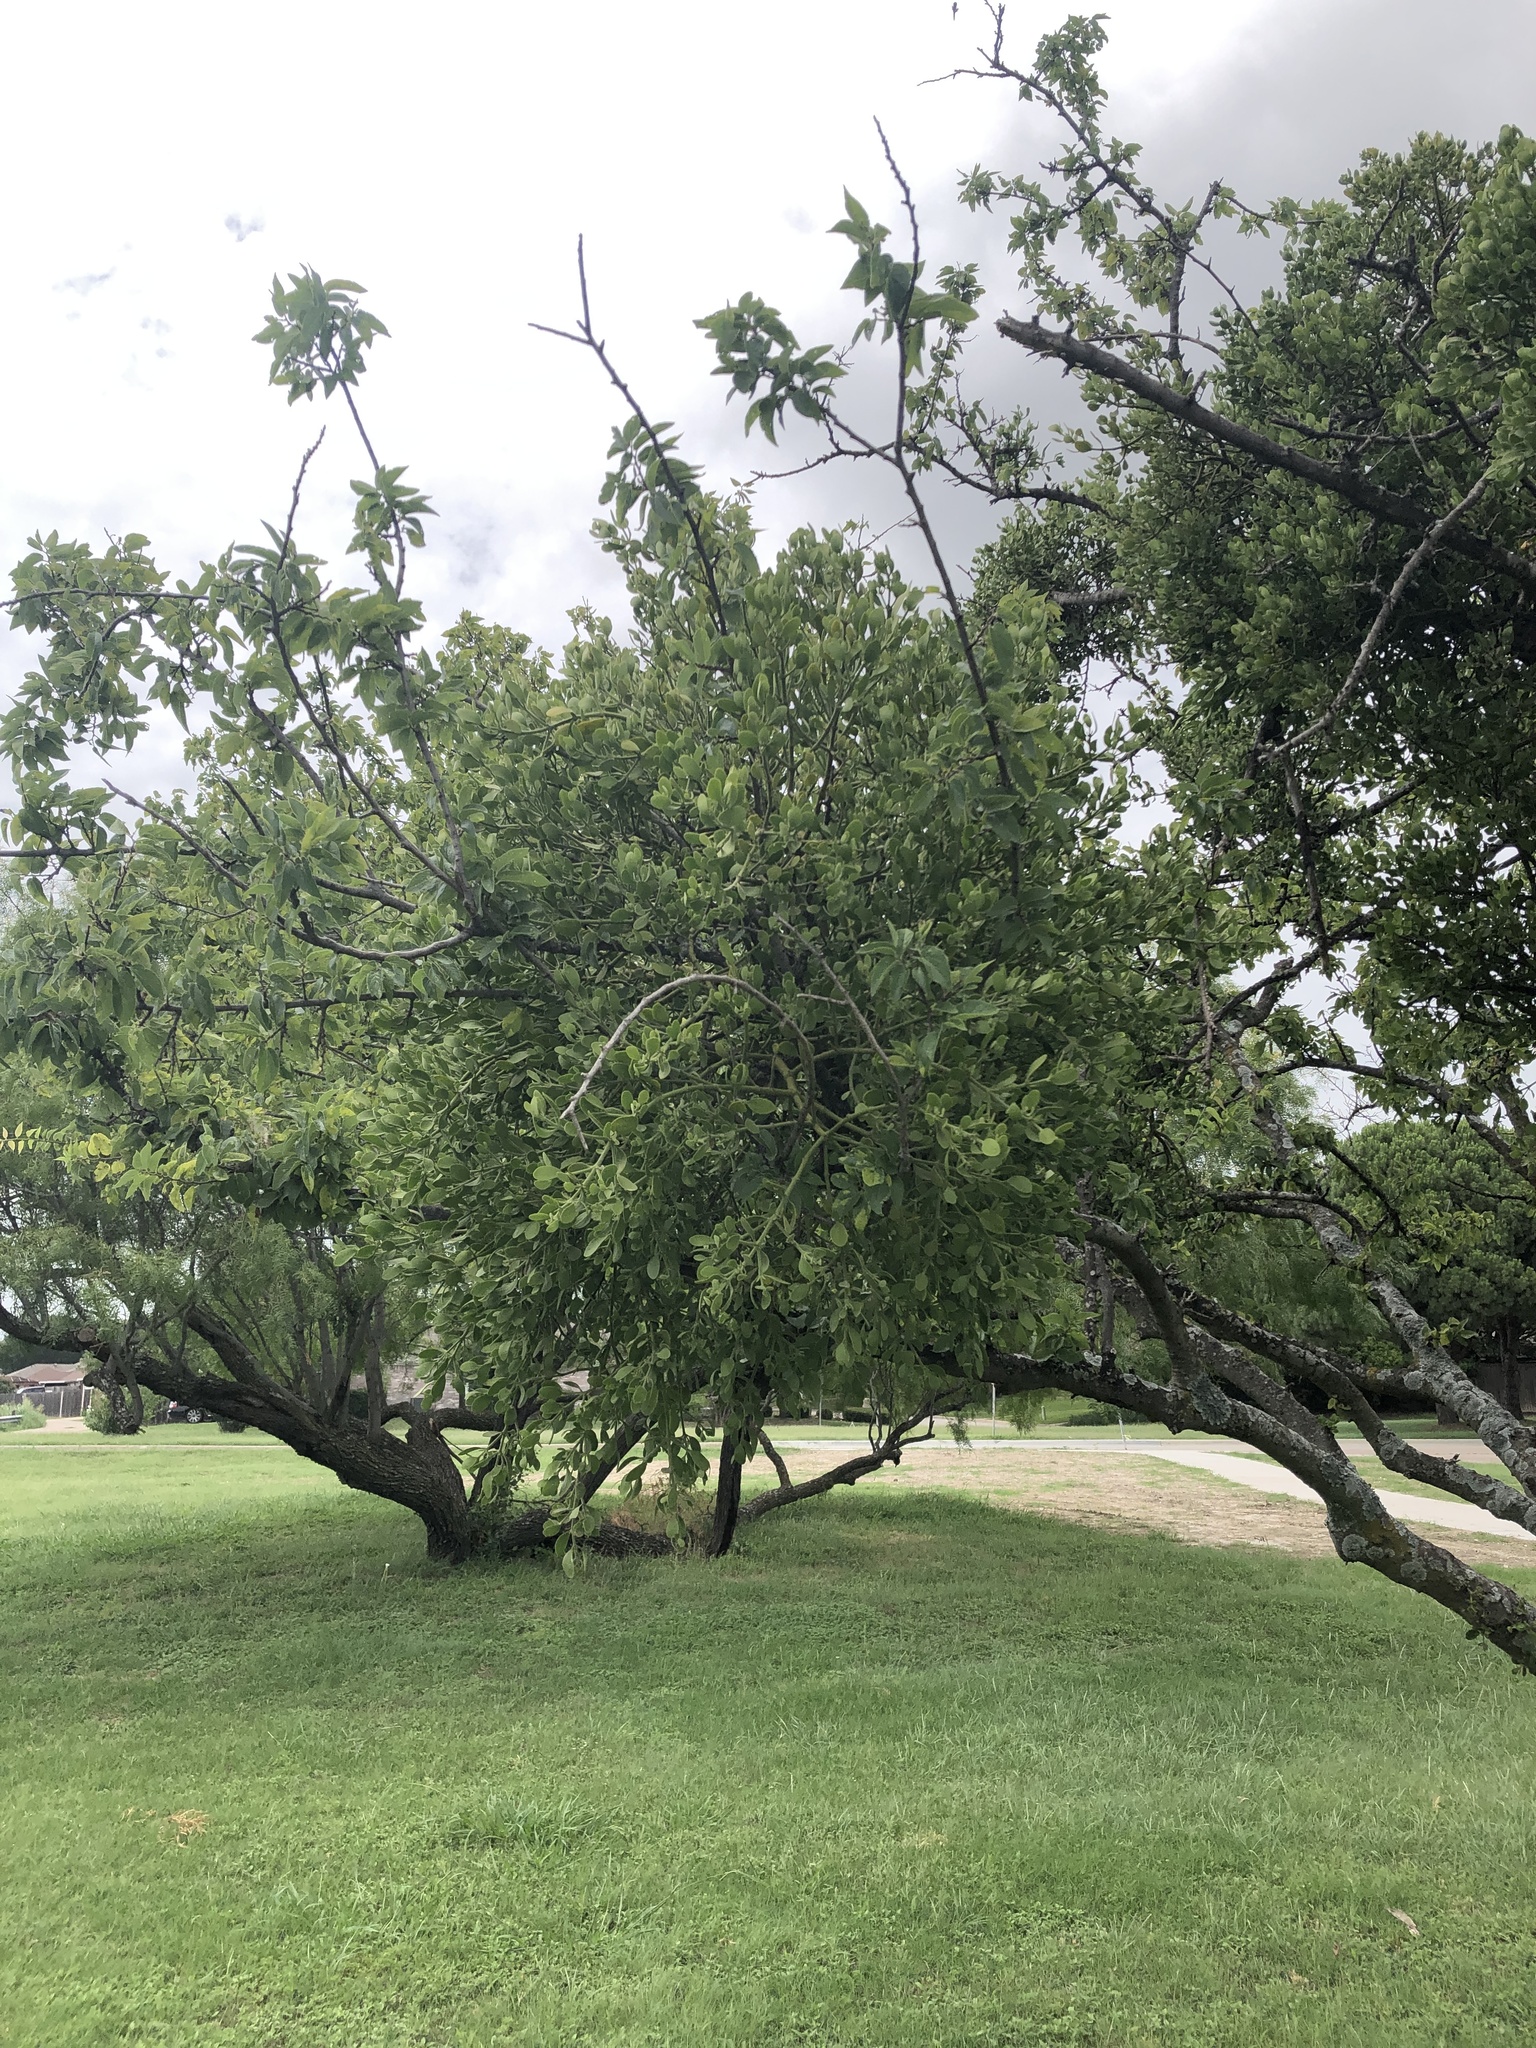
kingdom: Plantae
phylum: Tracheophyta
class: Magnoliopsida
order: Santalales
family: Viscaceae
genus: Phoradendron
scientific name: Phoradendron leucarpum
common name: Pacific mistletoe
